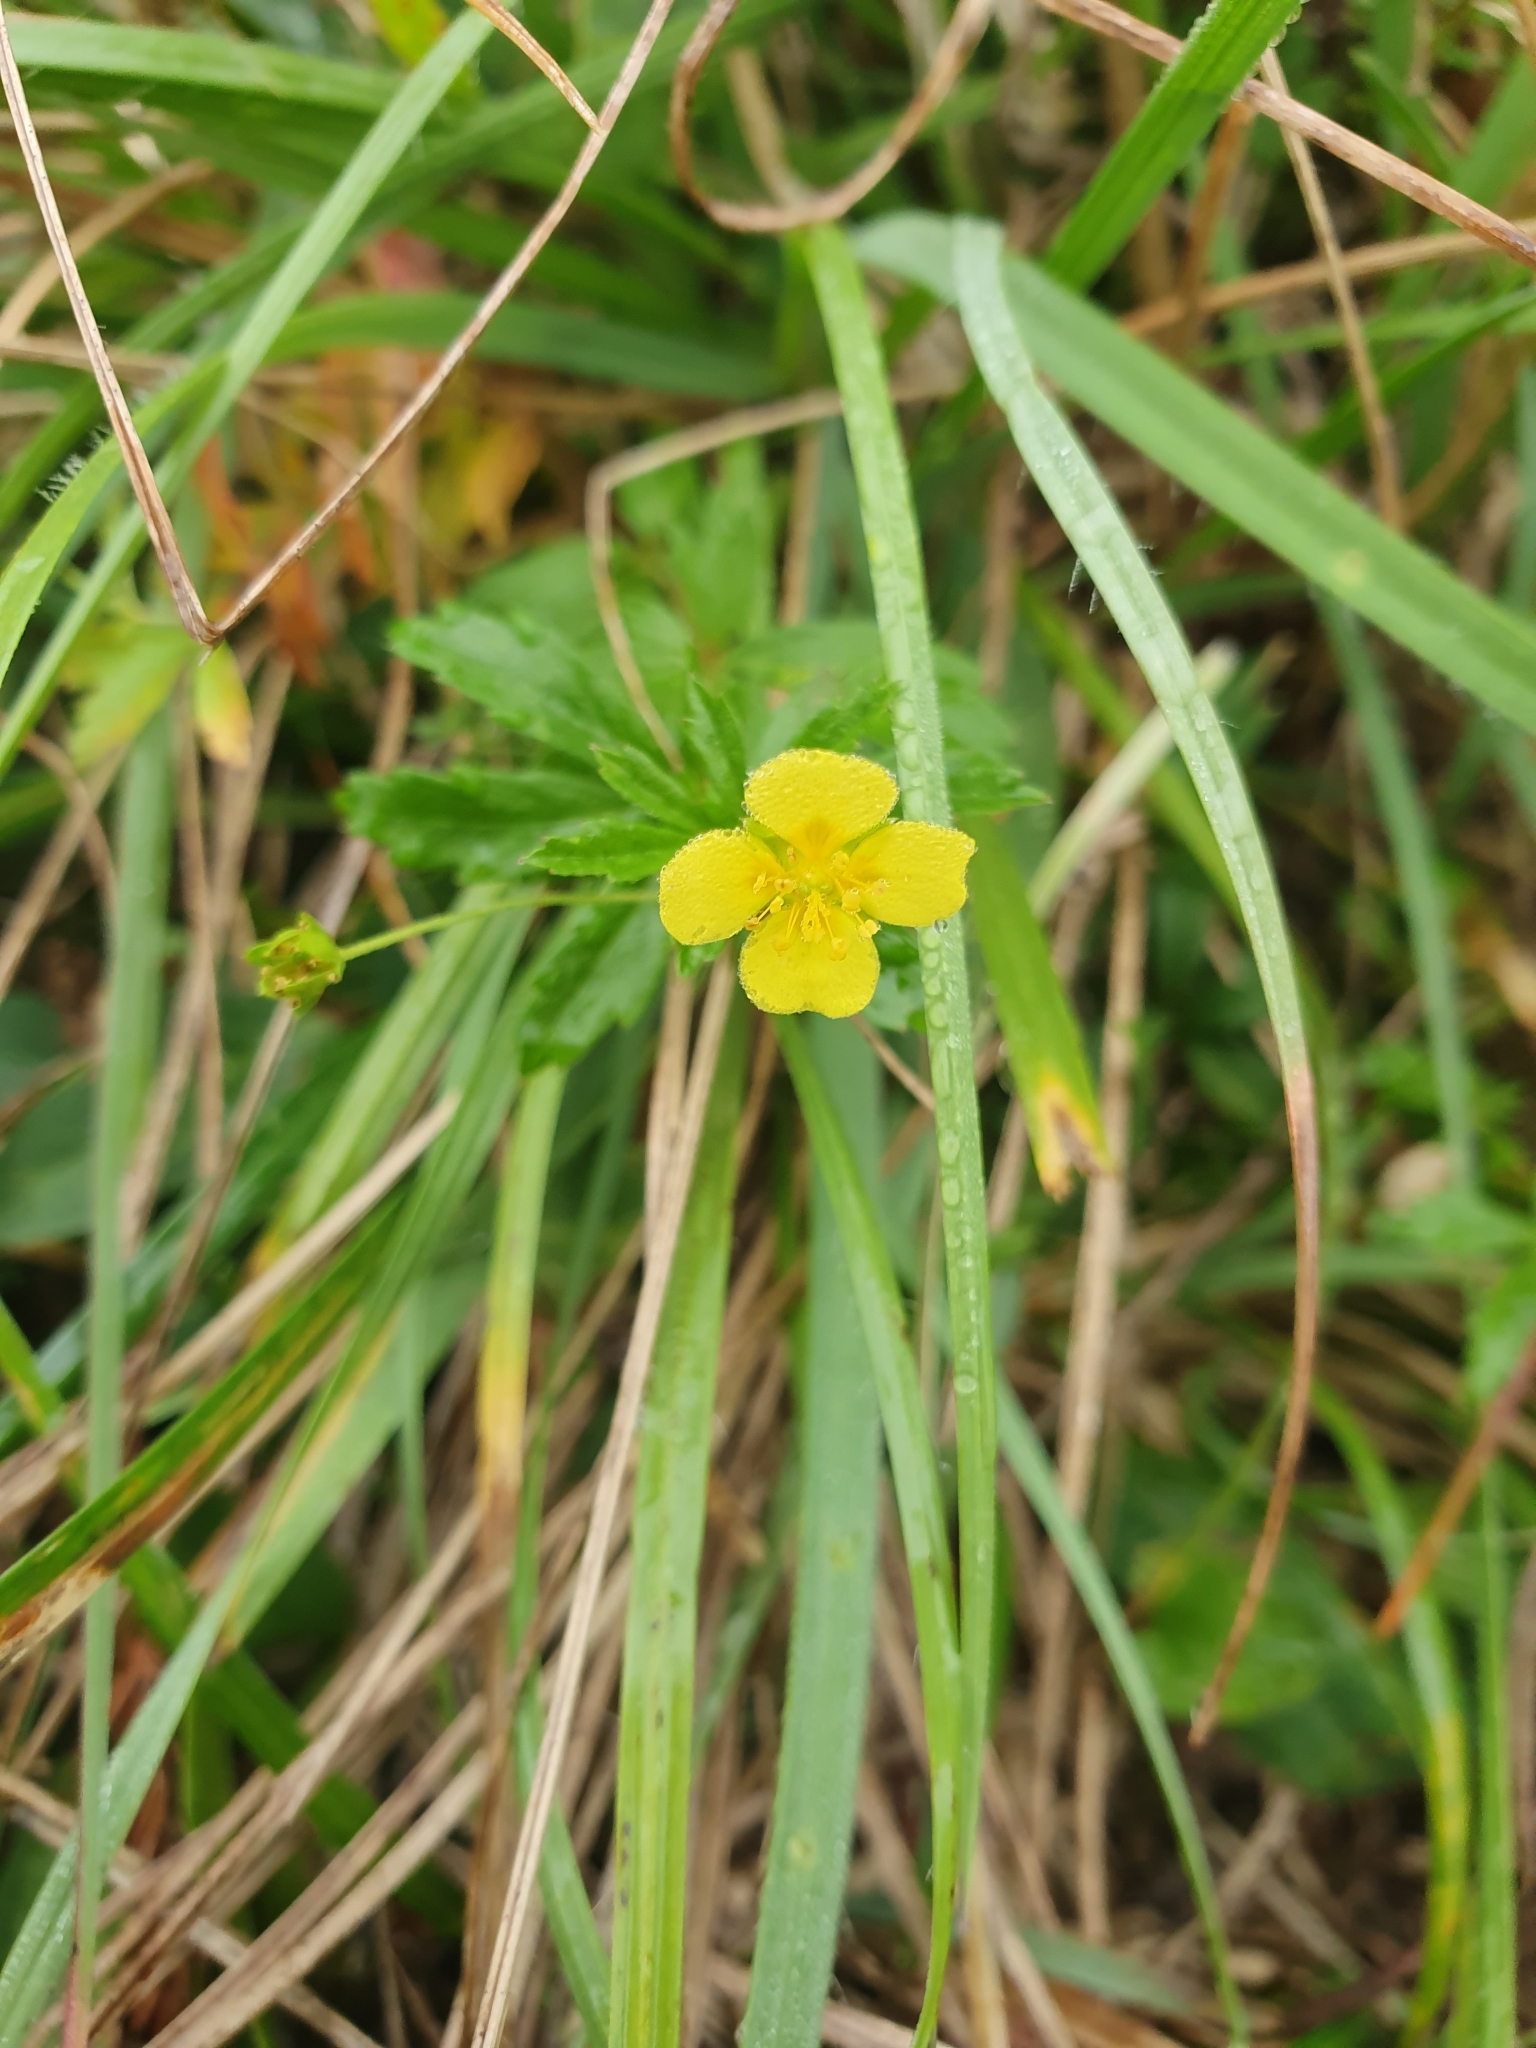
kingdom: Plantae
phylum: Tracheophyta
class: Magnoliopsida
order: Rosales
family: Rosaceae
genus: Potentilla
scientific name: Potentilla erecta
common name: Tormentil
